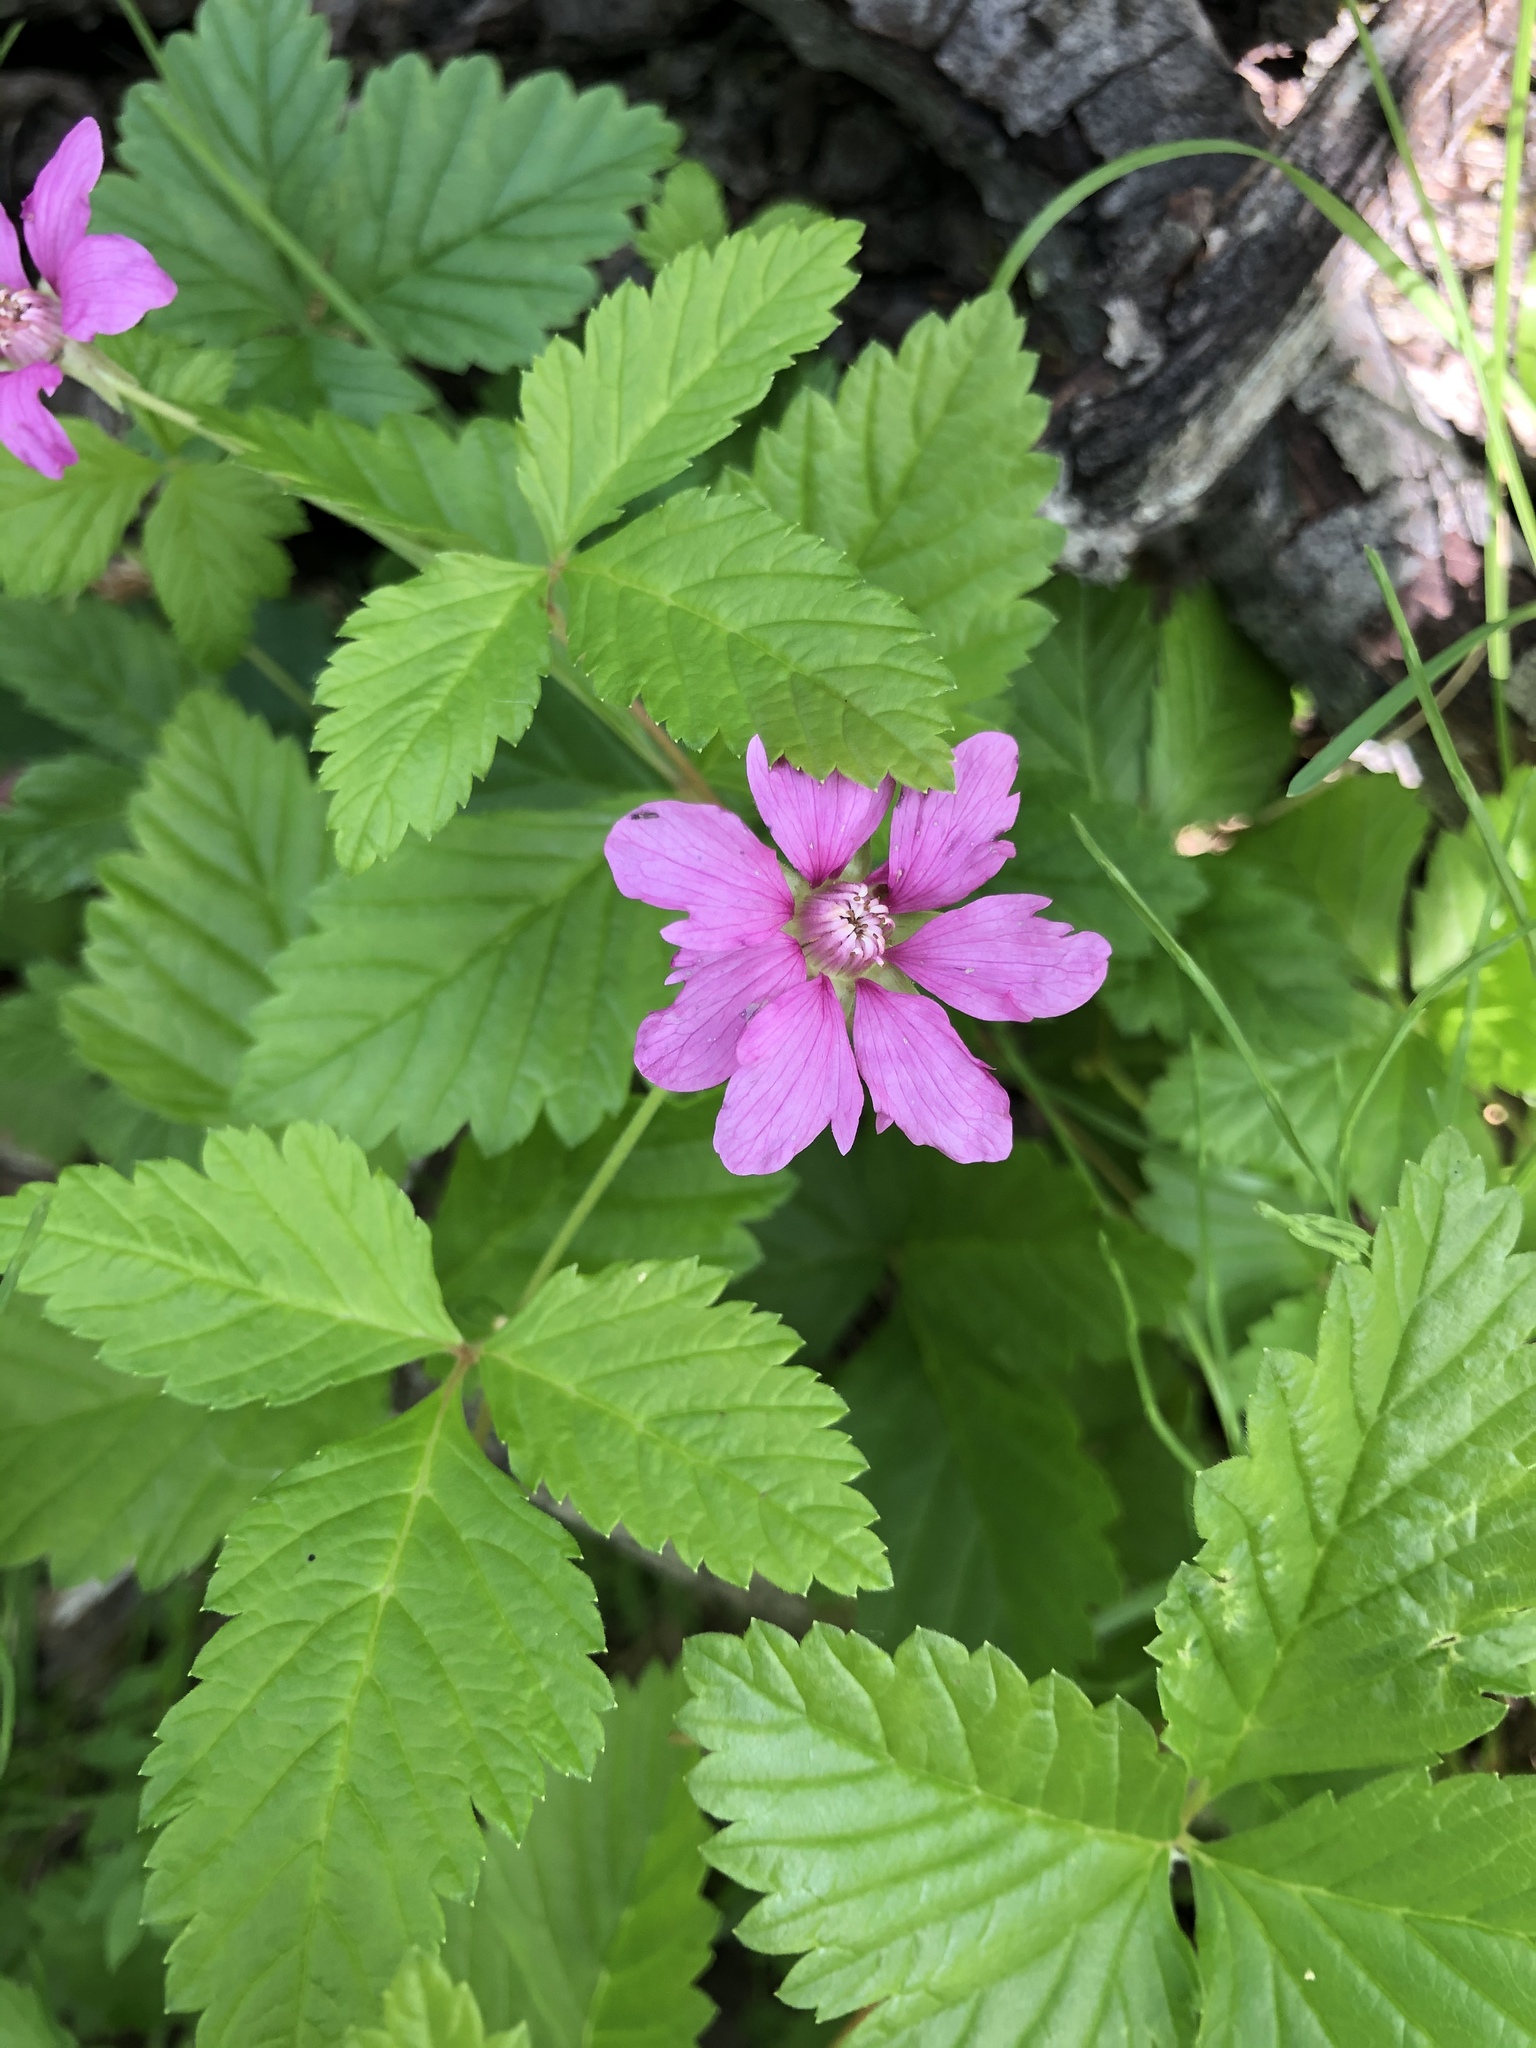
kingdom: Plantae
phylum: Tracheophyta
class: Magnoliopsida
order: Rosales
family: Rosaceae
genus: Rubus
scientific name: Rubus arcticus
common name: Arctic bramble
